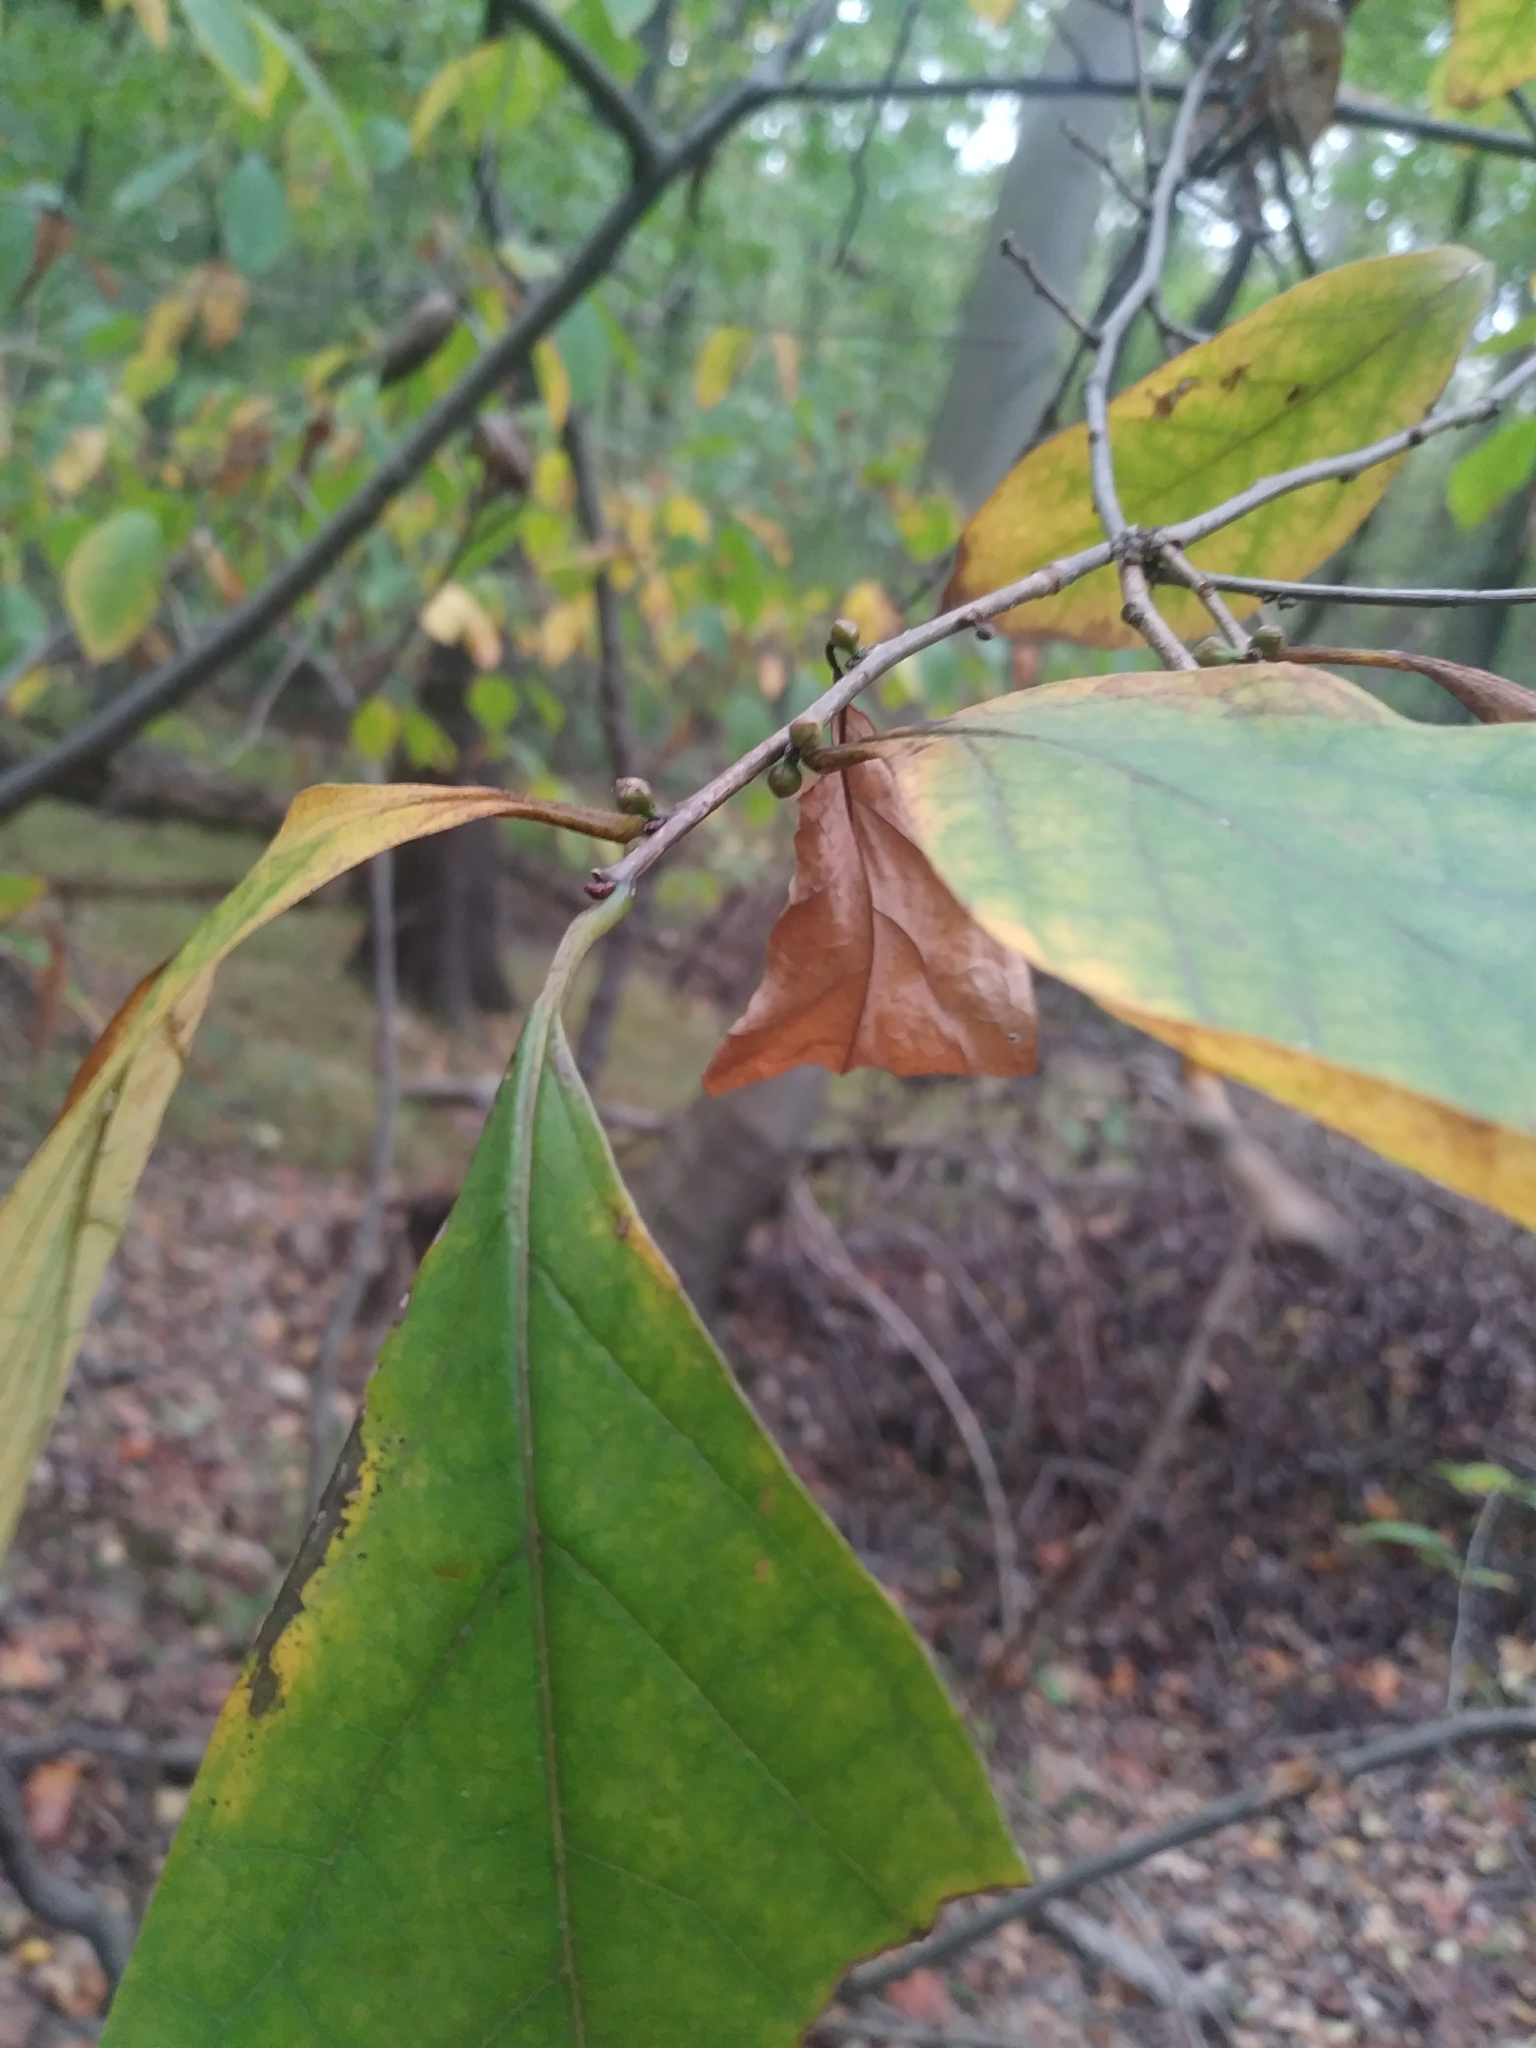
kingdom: Plantae
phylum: Tracheophyta
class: Magnoliopsida
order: Laurales
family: Lauraceae
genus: Lindera
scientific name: Lindera benzoin
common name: Spicebush
